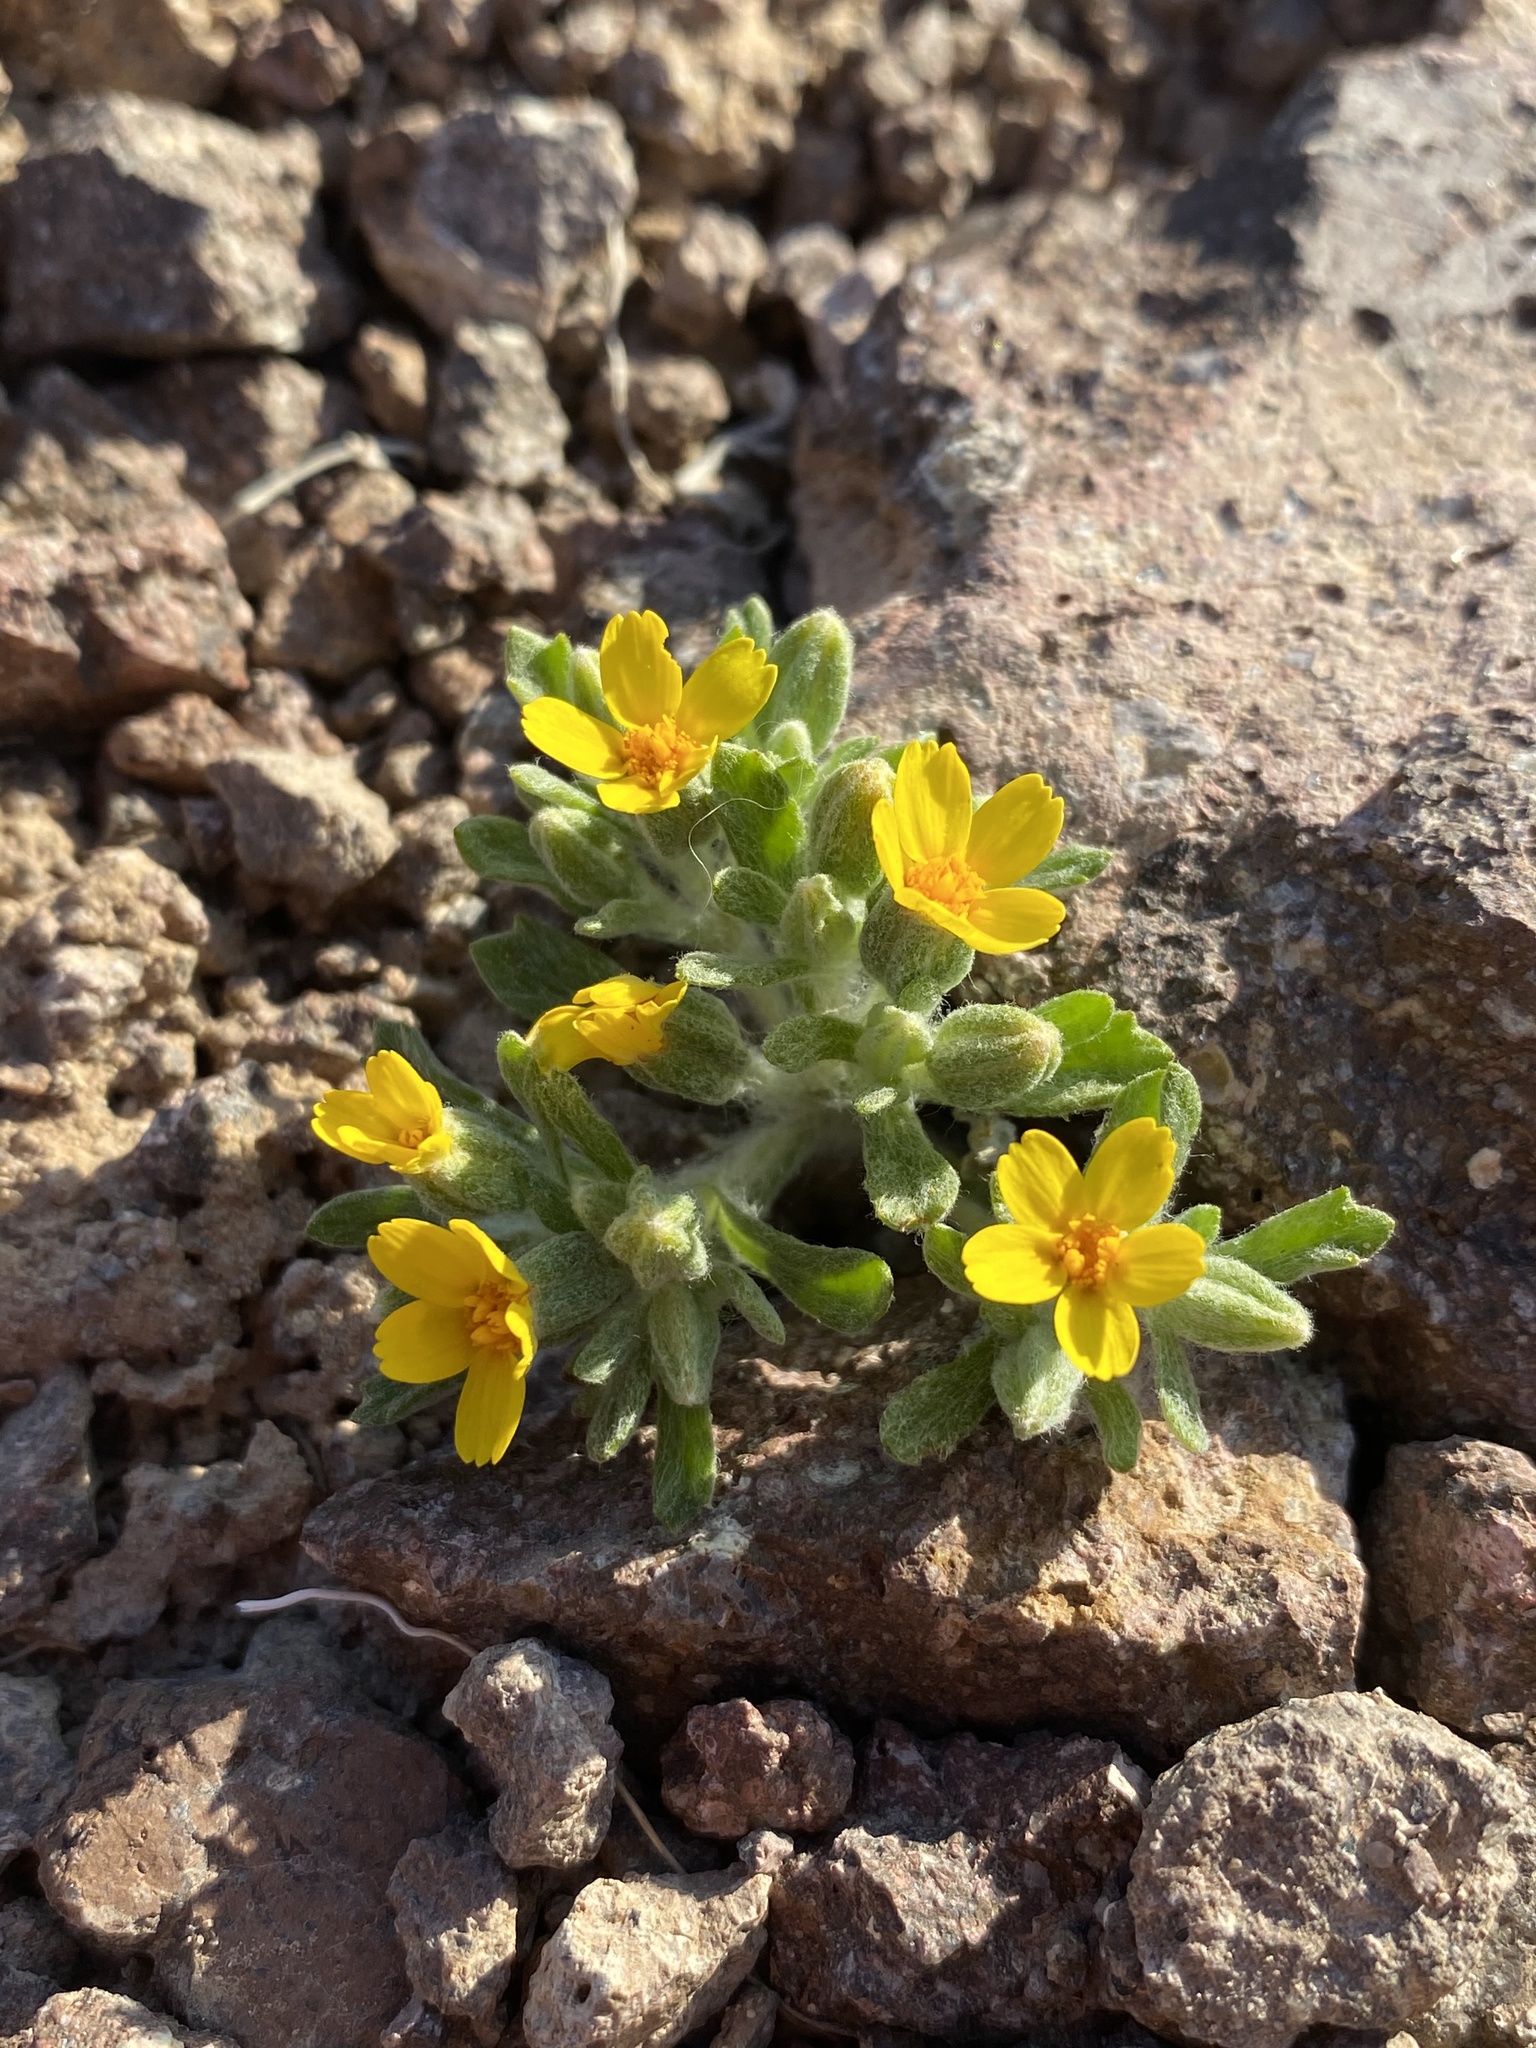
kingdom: Plantae
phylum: Tracheophyta
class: Magnoliopsida
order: Asterales
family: Asteraceae
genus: Syntrichopappus
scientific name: Syntrichopappus fremontii
